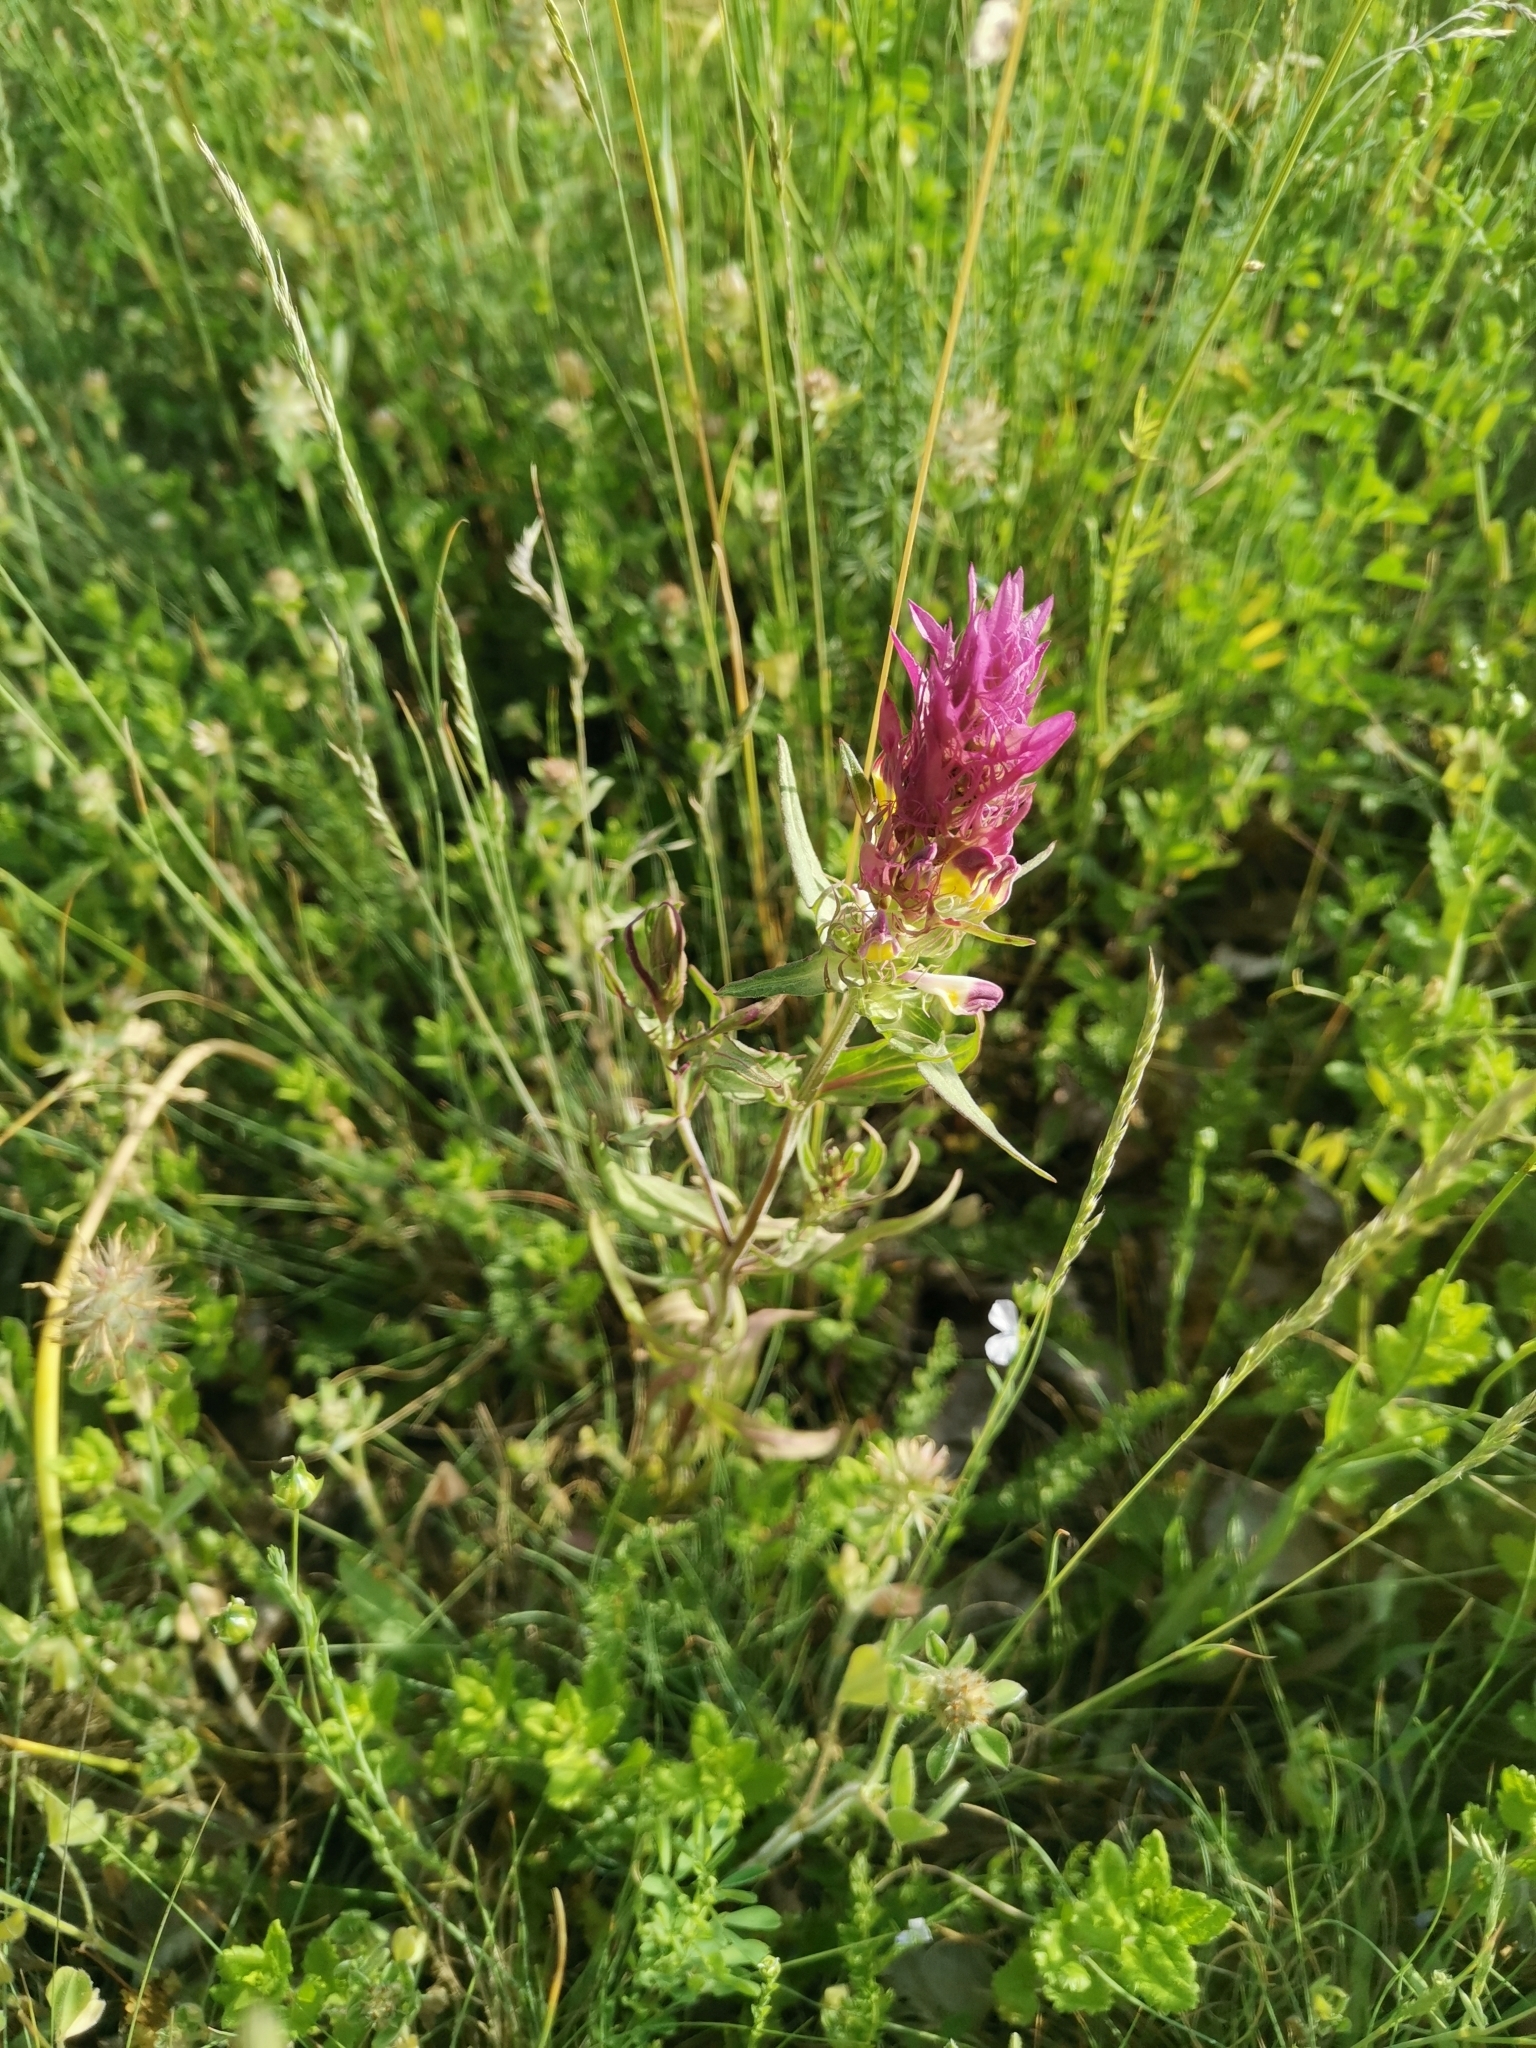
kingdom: Plantae
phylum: Tracheophyta
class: Magnoliopsida
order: Lamiales
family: Orobanchaceae
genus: Melampyrum
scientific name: Melampyrum arvense
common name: Field cow-wheat
